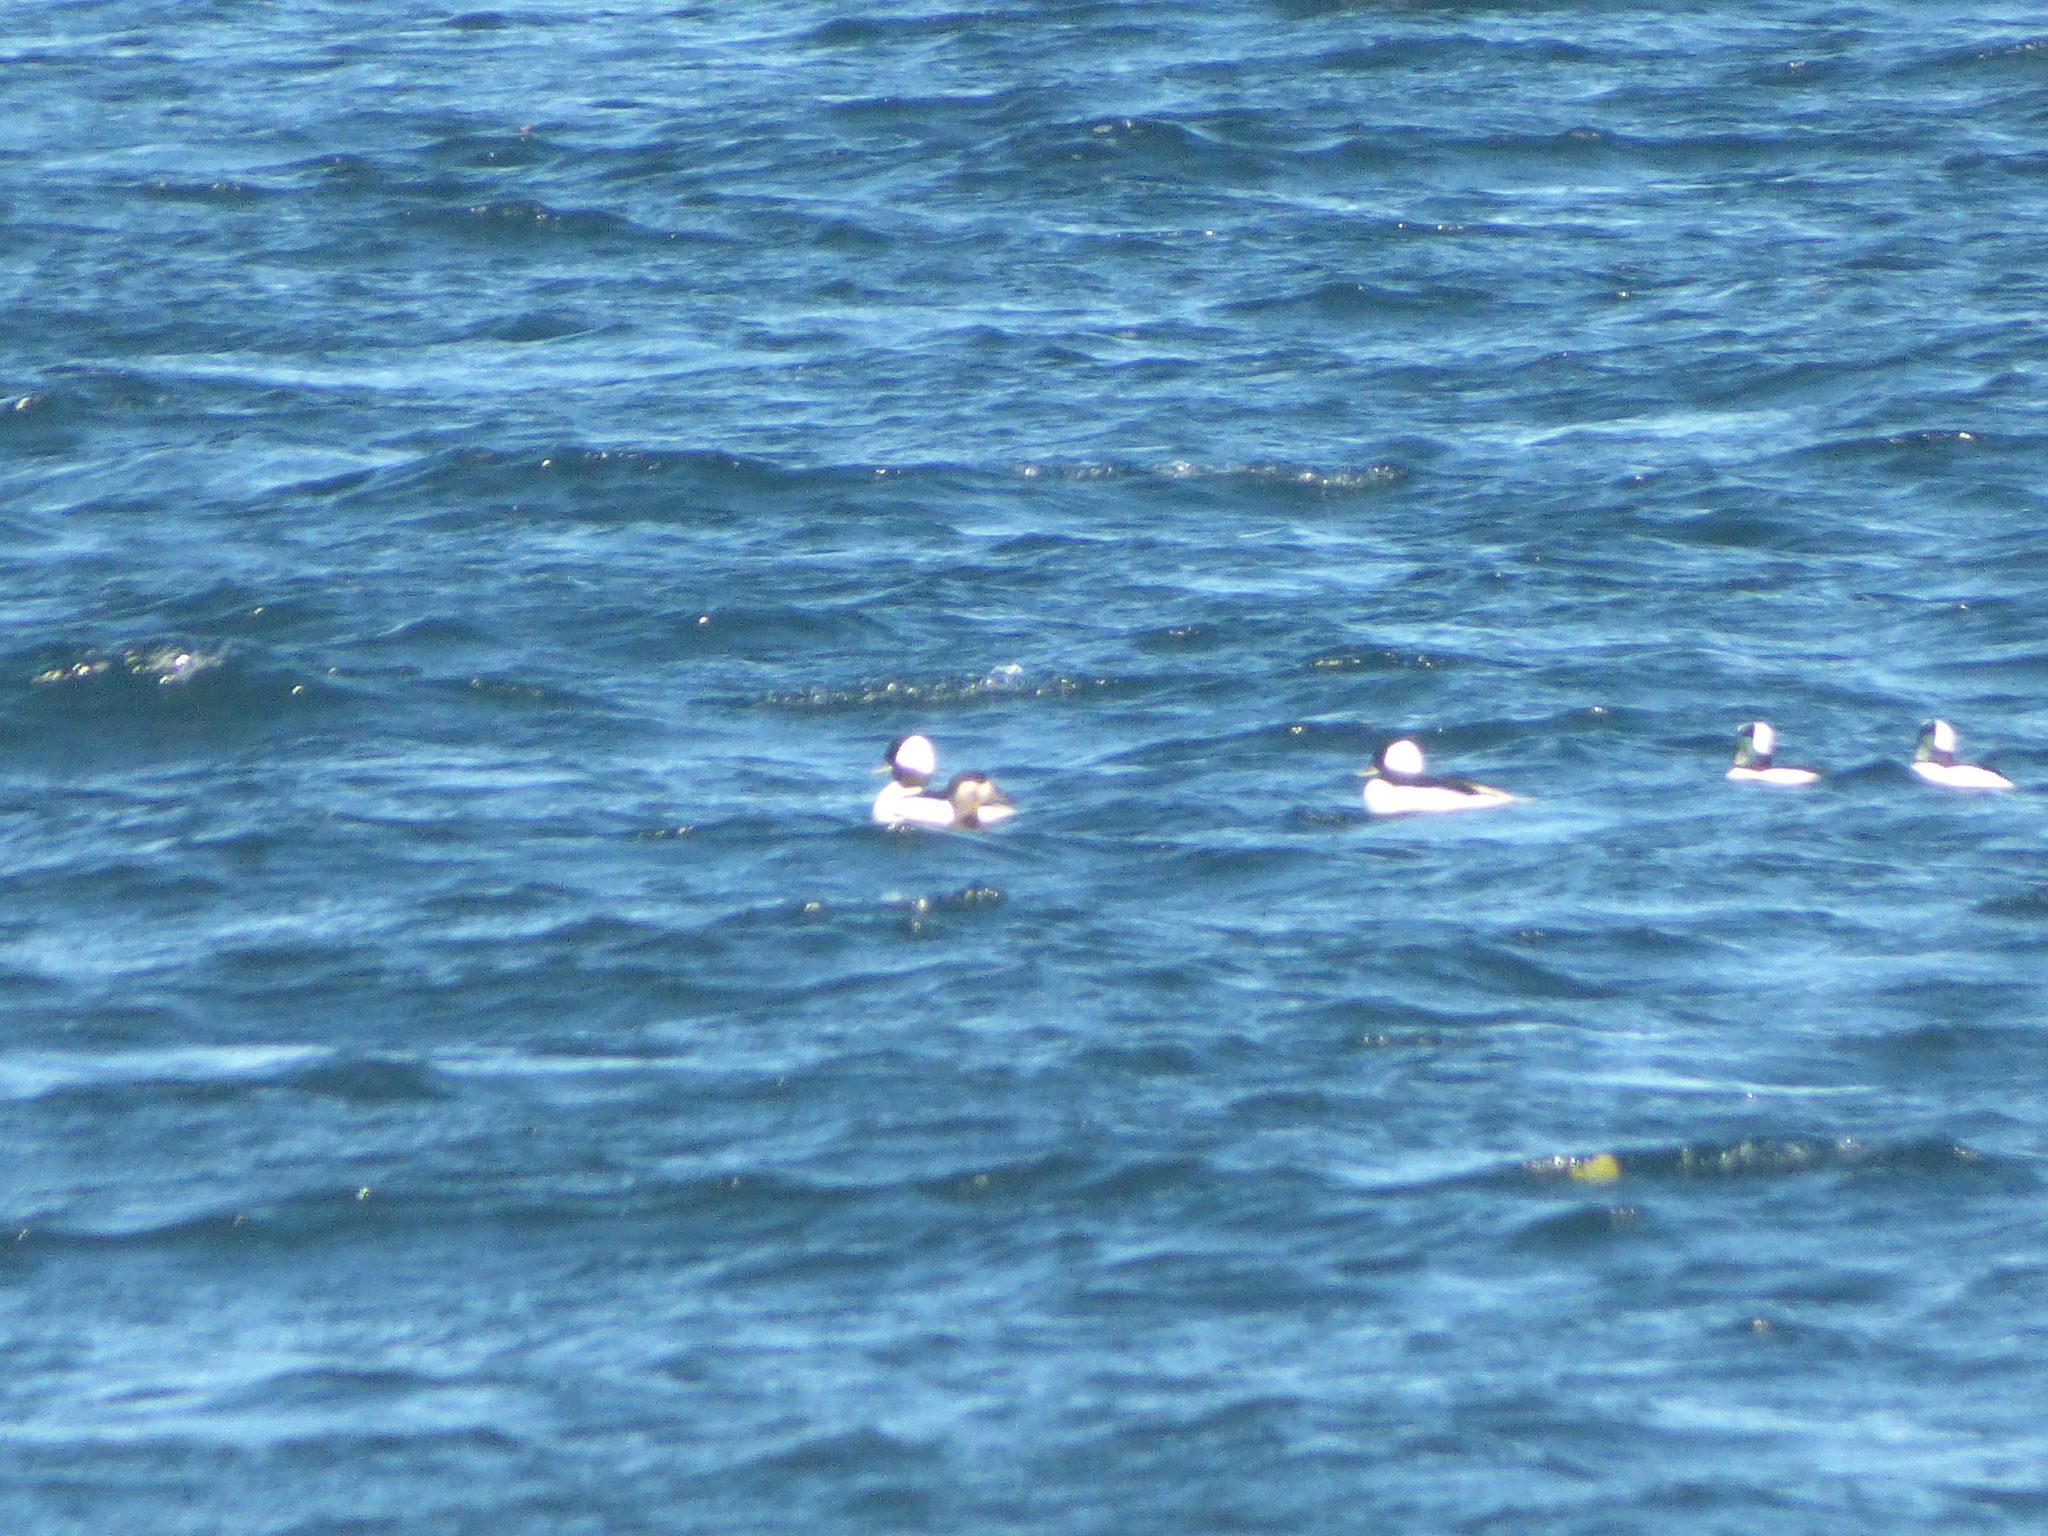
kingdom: Animalia
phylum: Chordata
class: Aves
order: Anseriformes
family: Anatidae
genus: Bucephala
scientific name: Bucephala albeola
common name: Bufflehead
